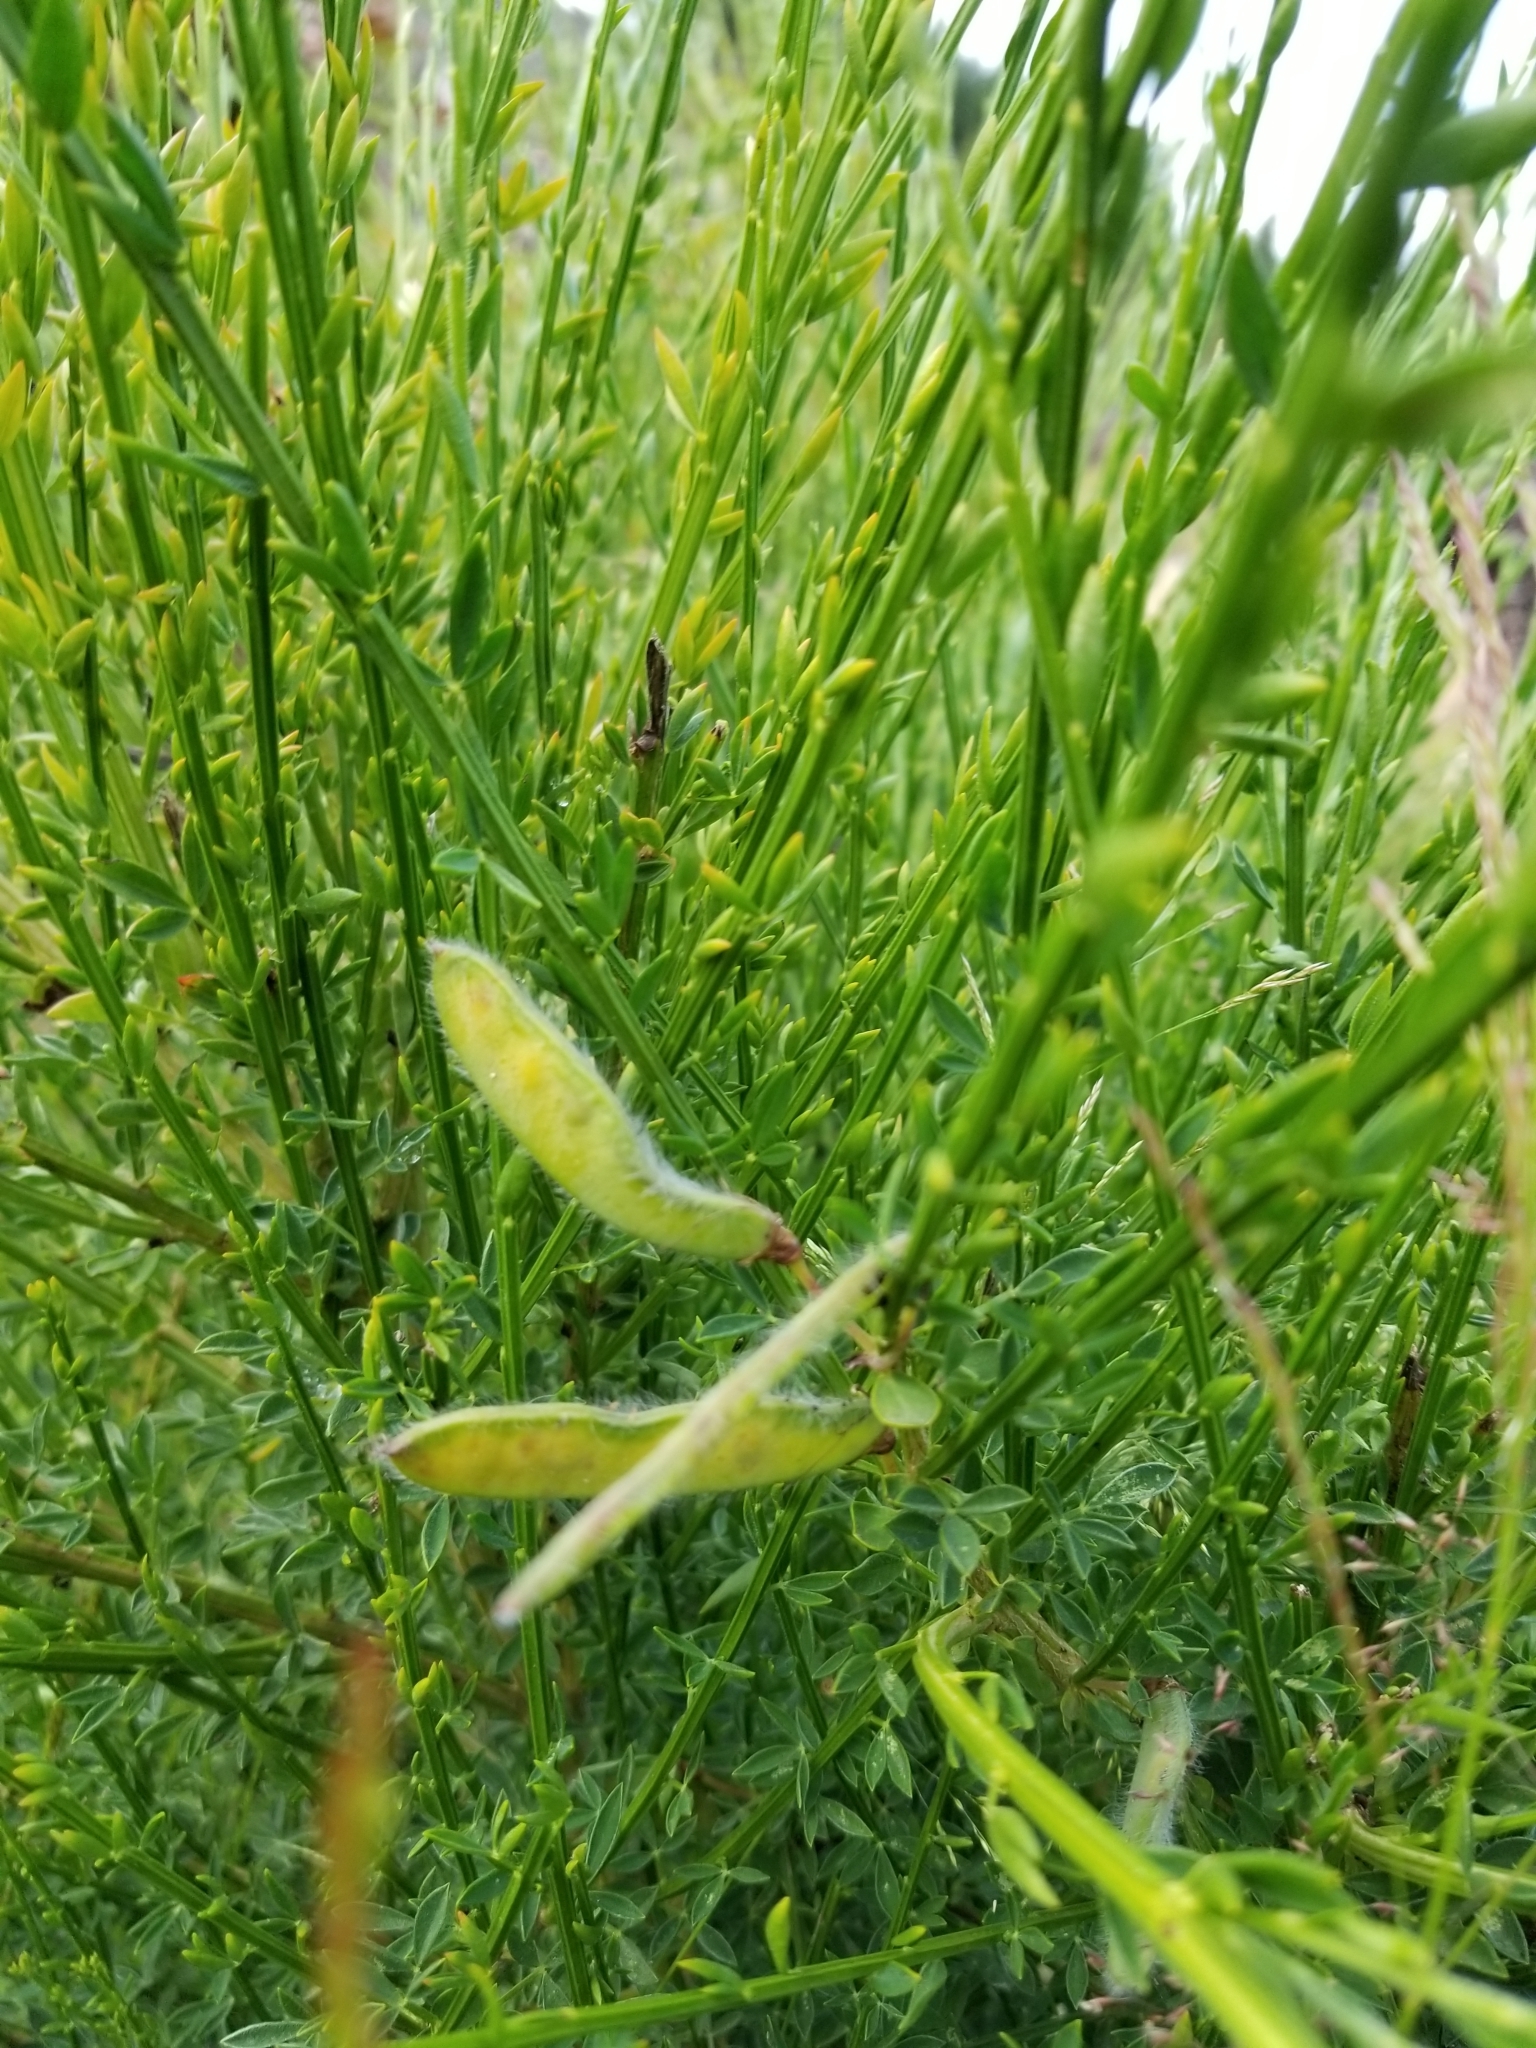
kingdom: Plantae
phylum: Tracheophyta
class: Magnoliopsida
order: Fabales
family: Fabaceae
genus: Cytisus
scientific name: Cytisus scoparius
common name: Scotch broom
